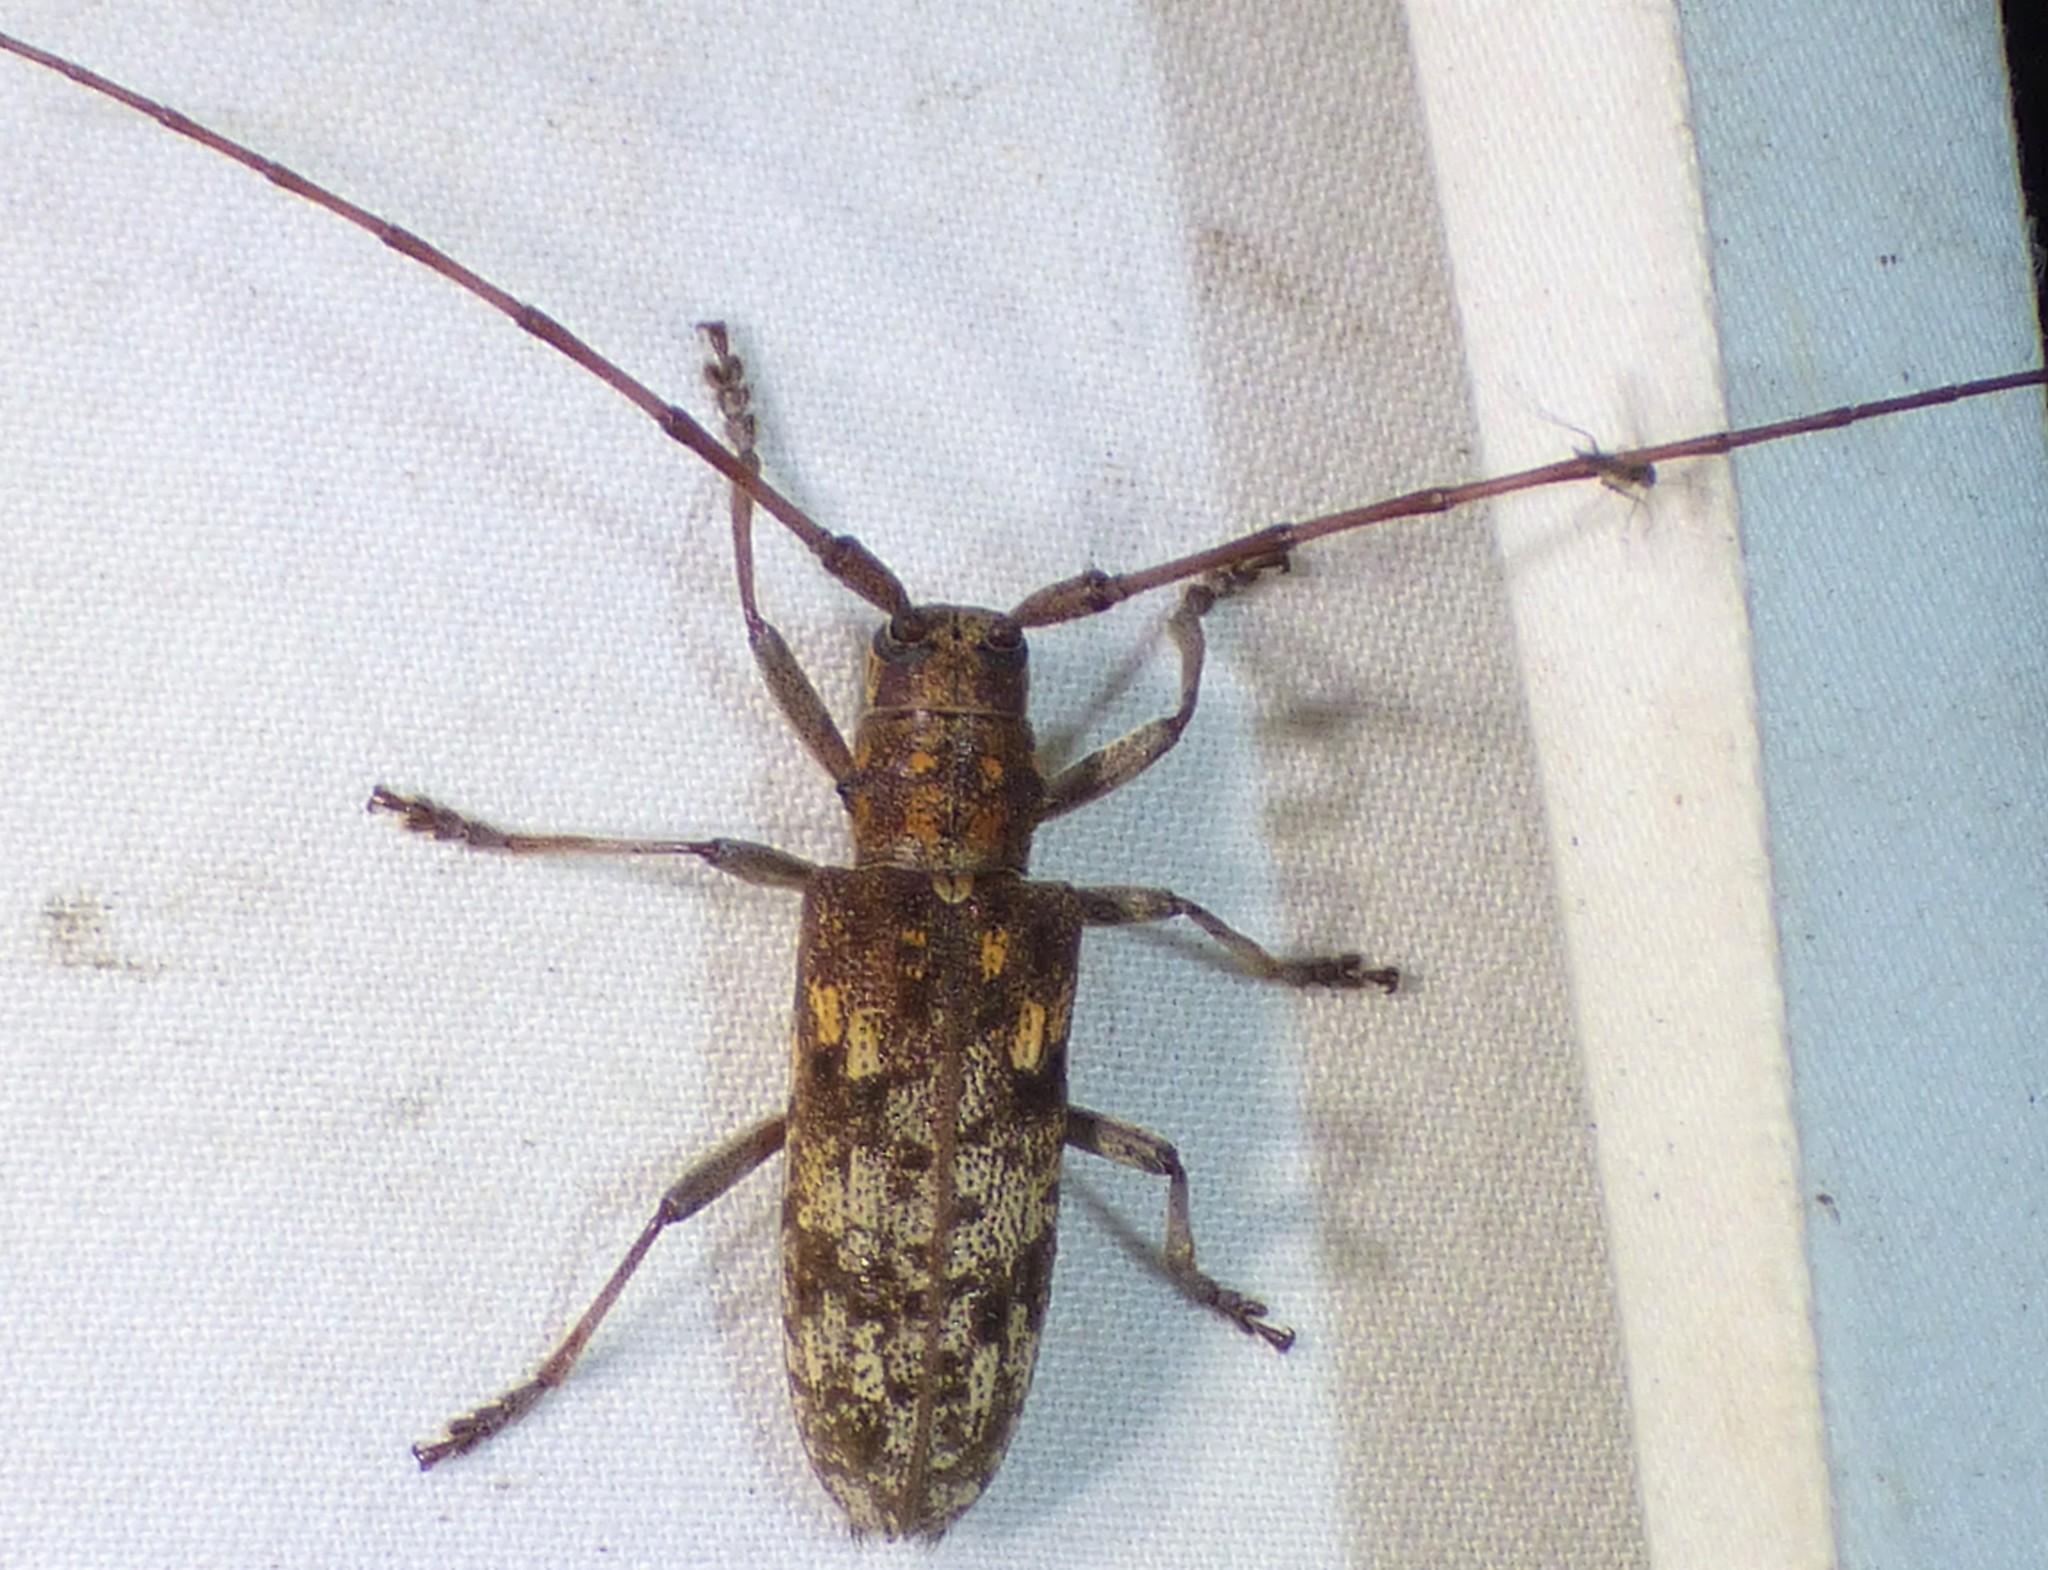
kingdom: Animalia
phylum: Arthropoda
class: Insecta
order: Coleoptera
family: Cerambycidae
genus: Monochamus
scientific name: Monochamus carolinensis
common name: Carolina pine sawyer
